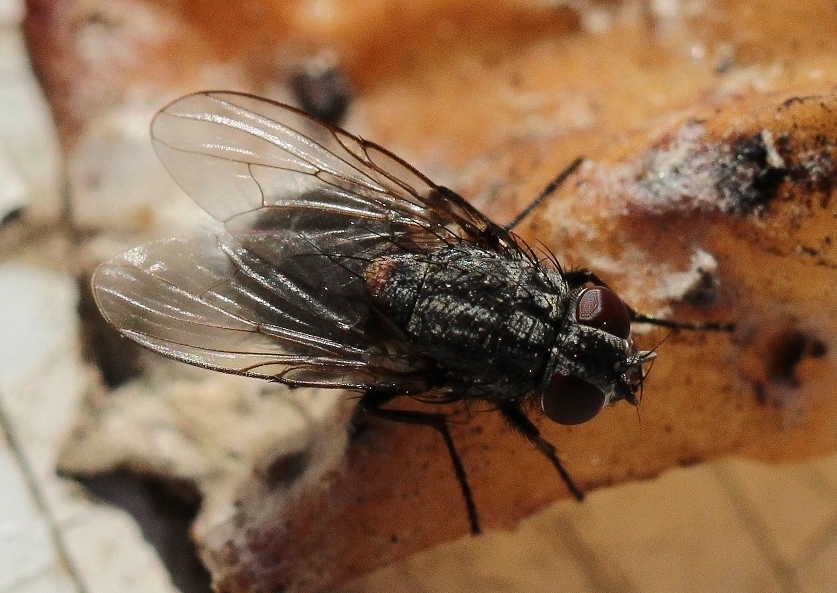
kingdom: Animalia
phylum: Arthropoda
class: Insecta
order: Diptera
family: Muscidae
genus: Muscina
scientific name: Muscina levida
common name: House fly
